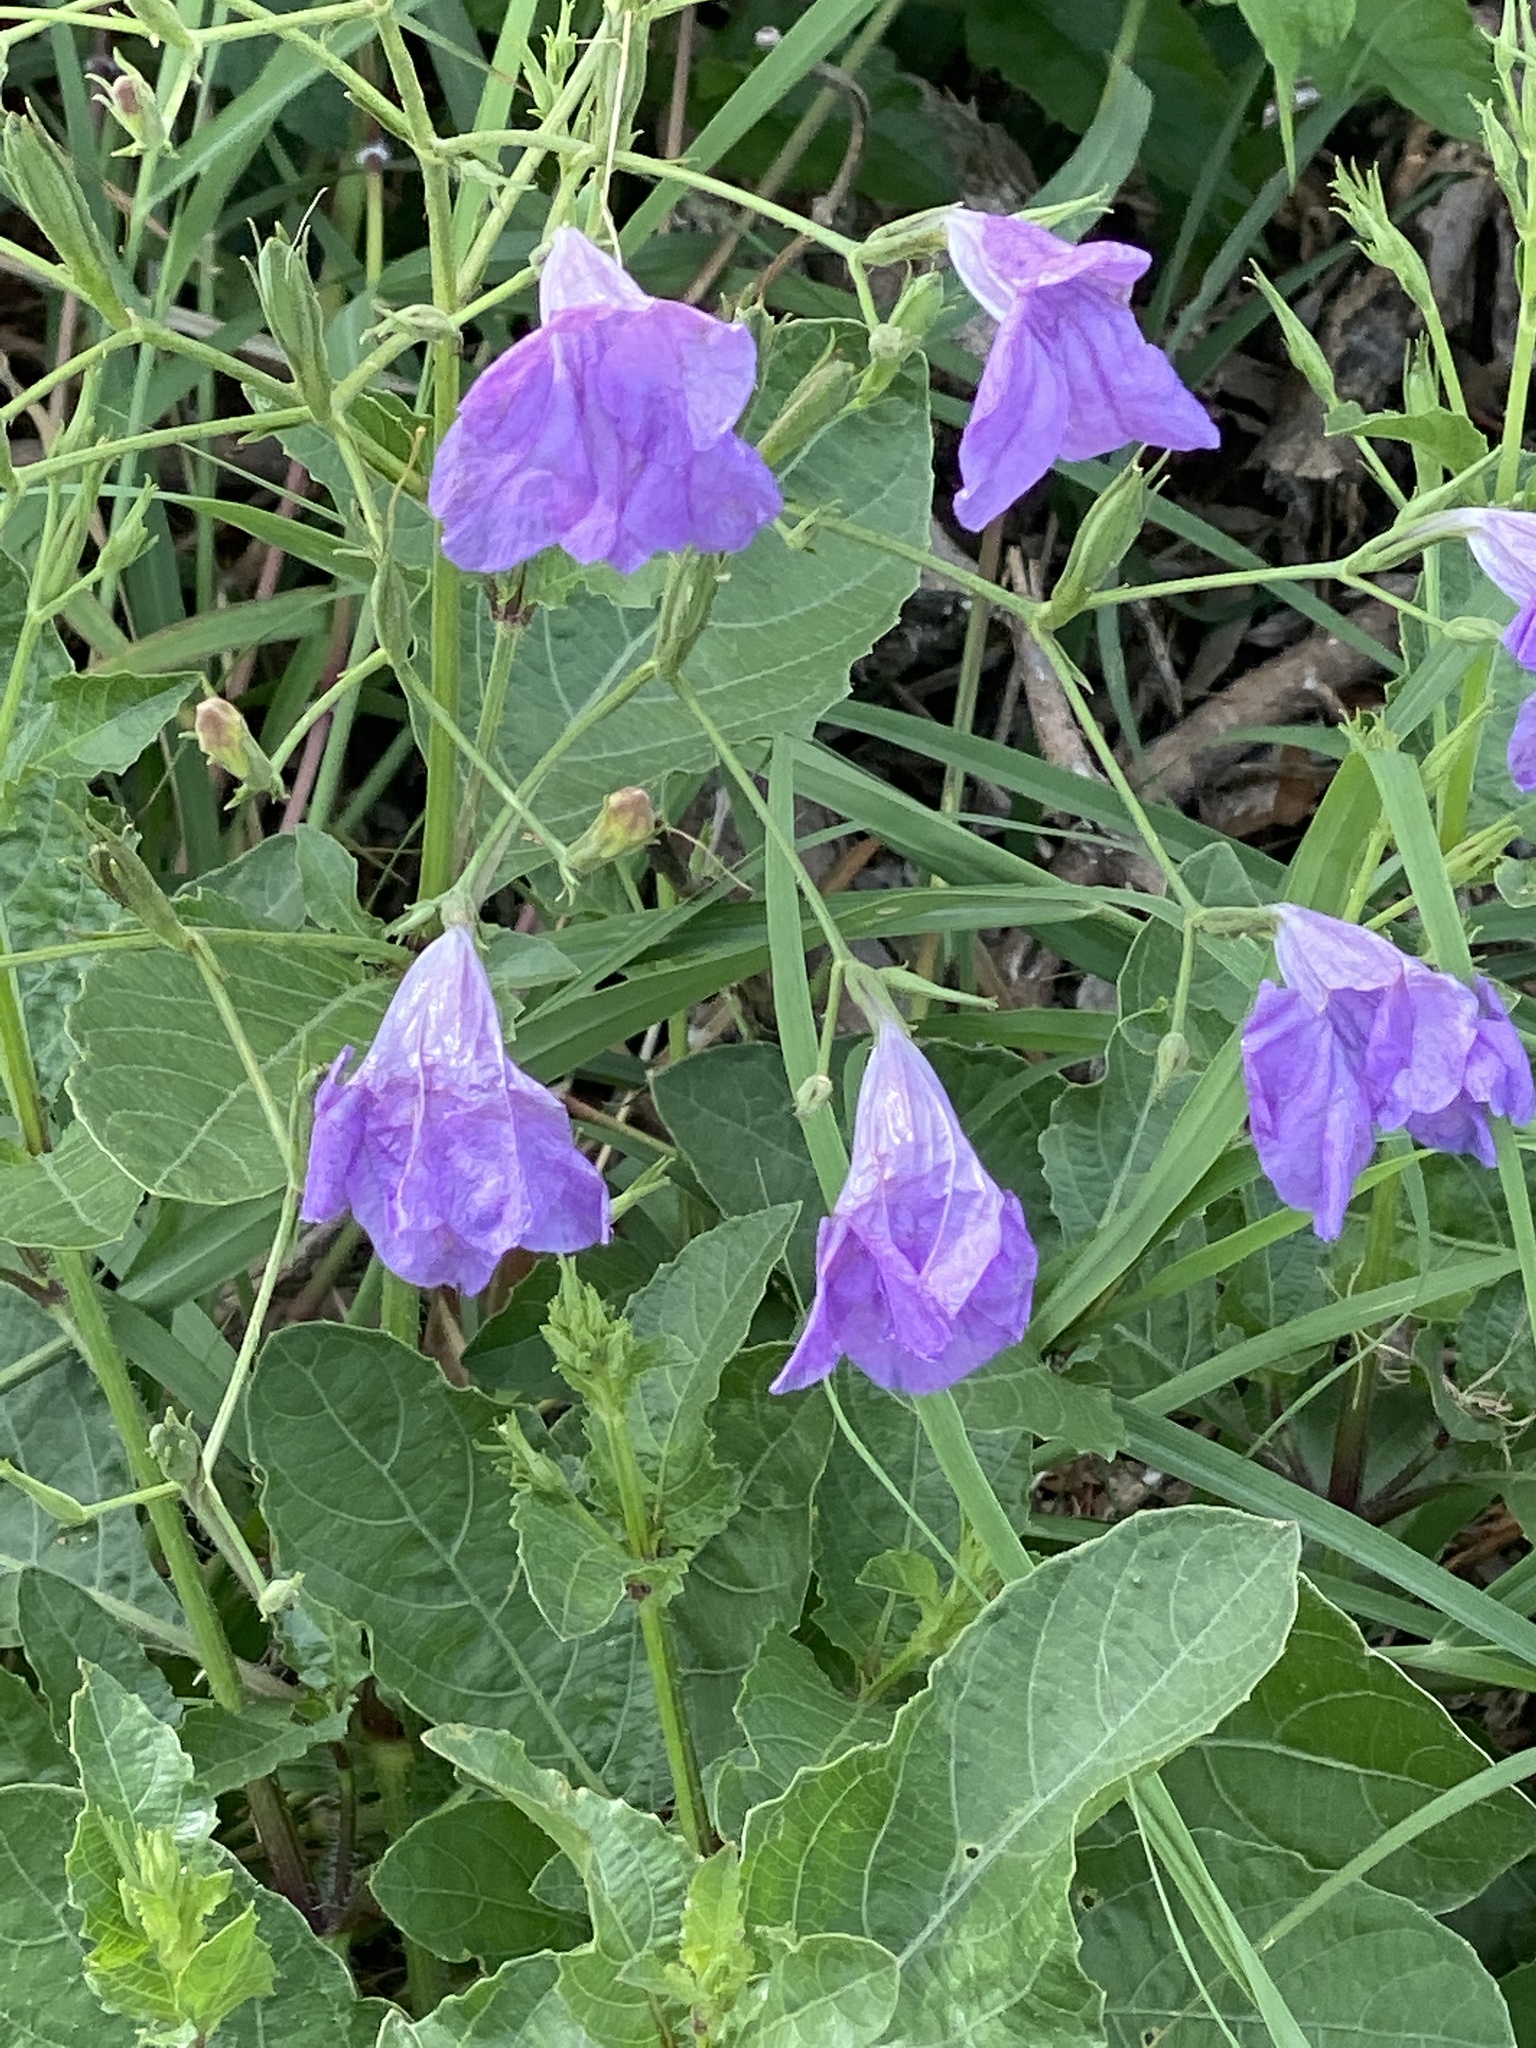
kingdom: Plantae
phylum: Tracheophyta
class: Magnoliopsida
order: Lamiales
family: Acanthaceae
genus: Ruellia
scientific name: Ruellia ciliatiflora
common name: Hairyflower wild petunia
